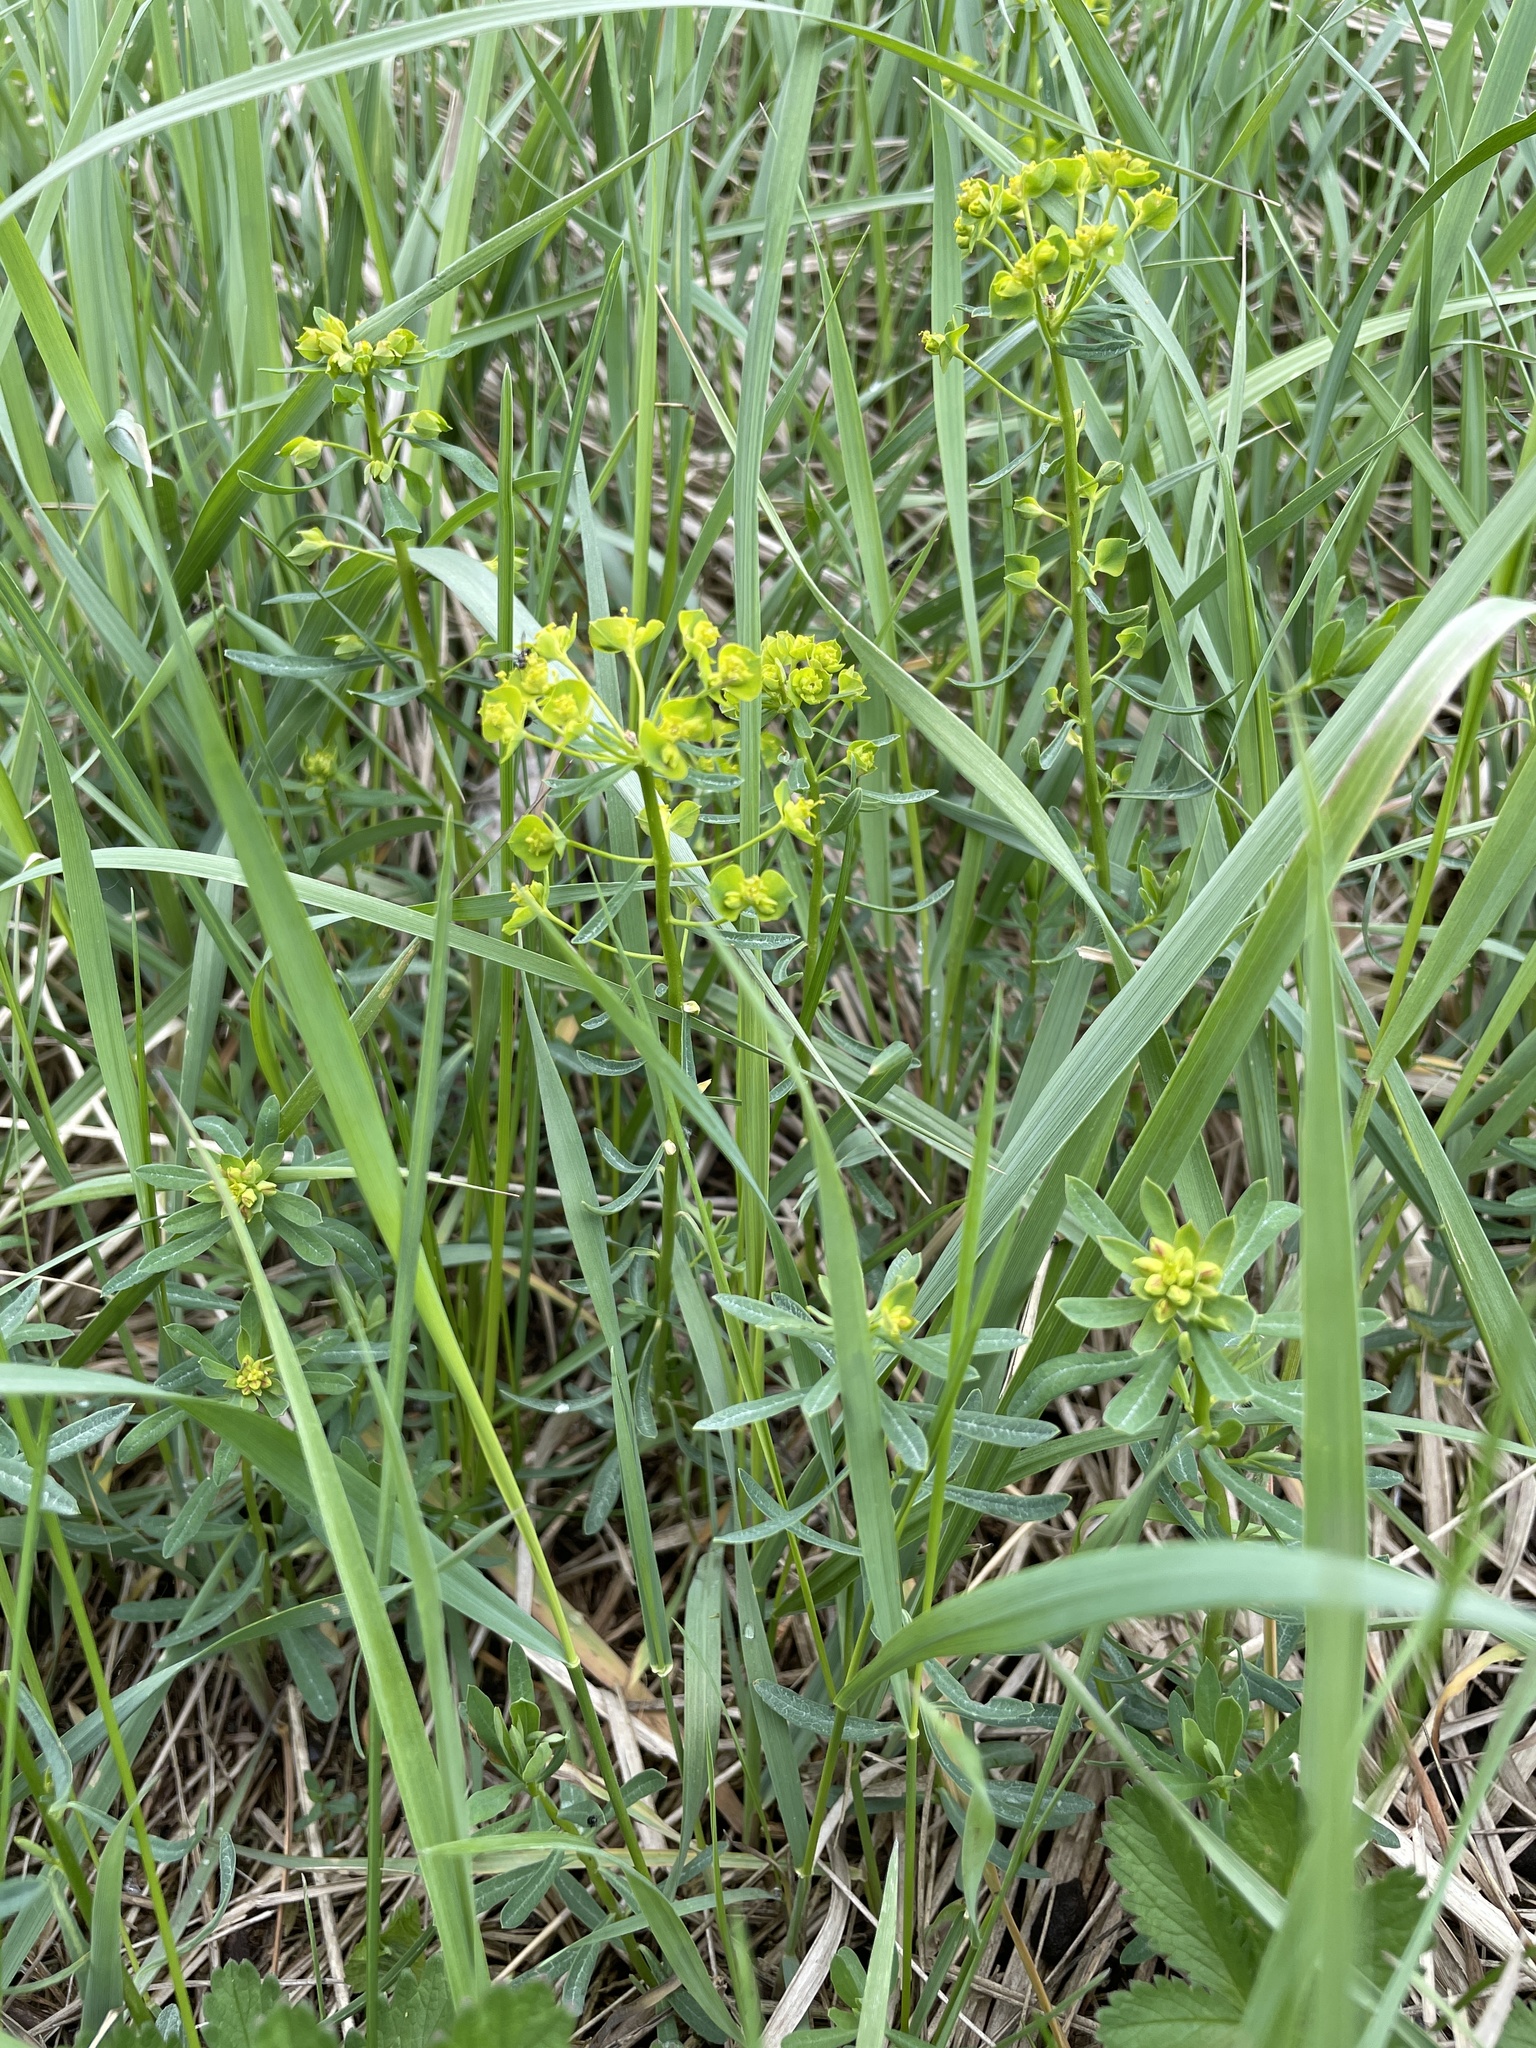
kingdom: Plantae
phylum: Tracheophyta
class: Magnoliopsida
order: Malpighiales
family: Euphorbiaceae
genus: Euphorbia
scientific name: Euphorbia esula
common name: Leafy spurge
